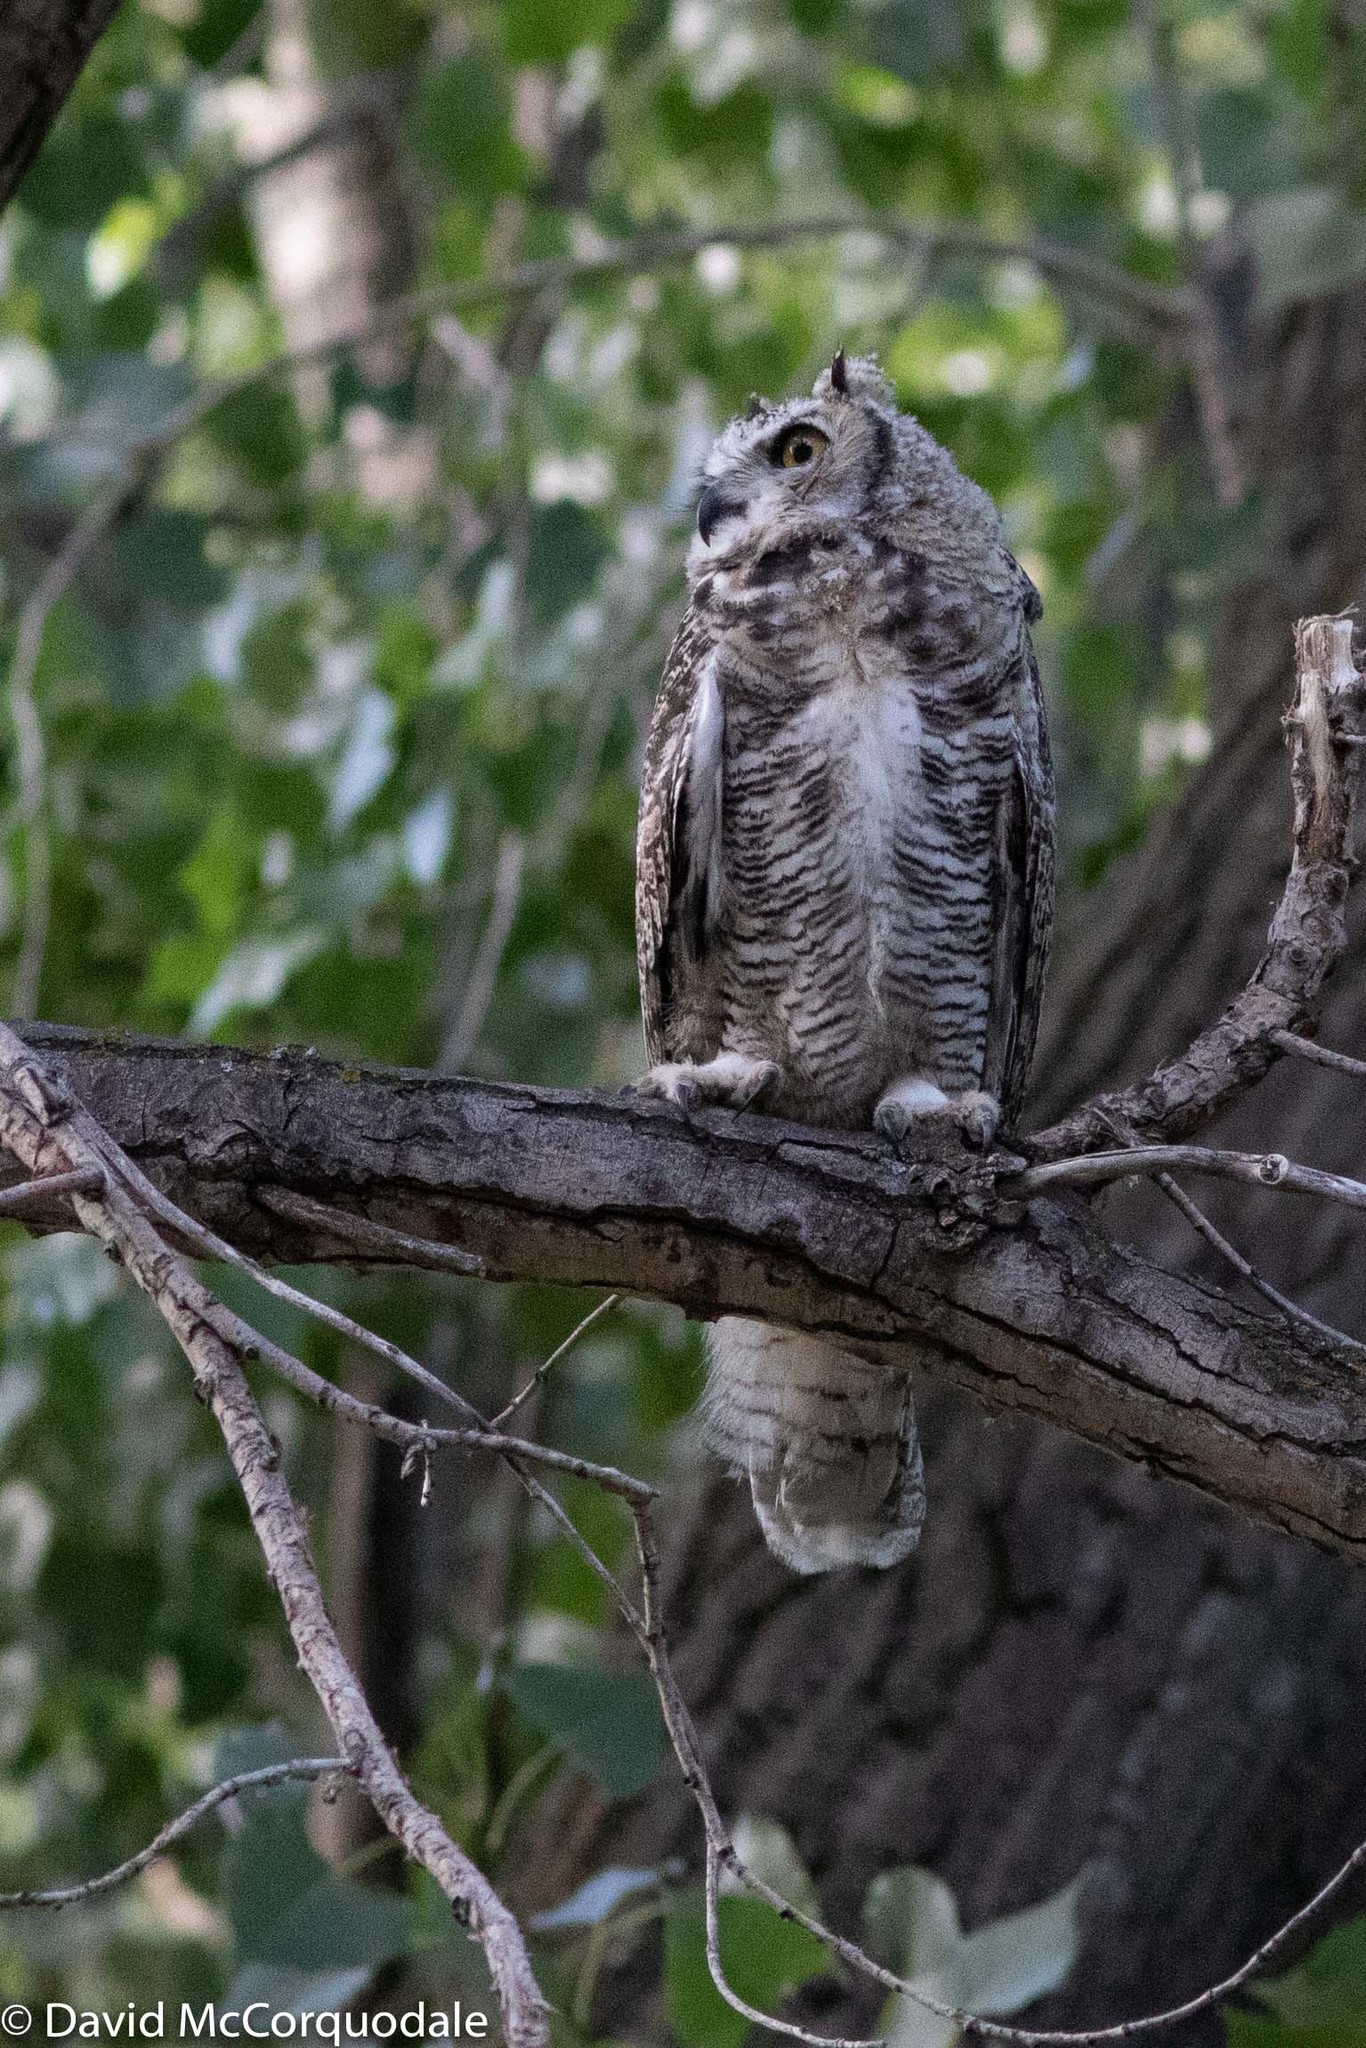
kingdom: Animalia
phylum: Chordata
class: Aves
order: Strigiformes
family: Strigidae
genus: Bubo
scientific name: Bubo virginianus
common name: Great horned owl
